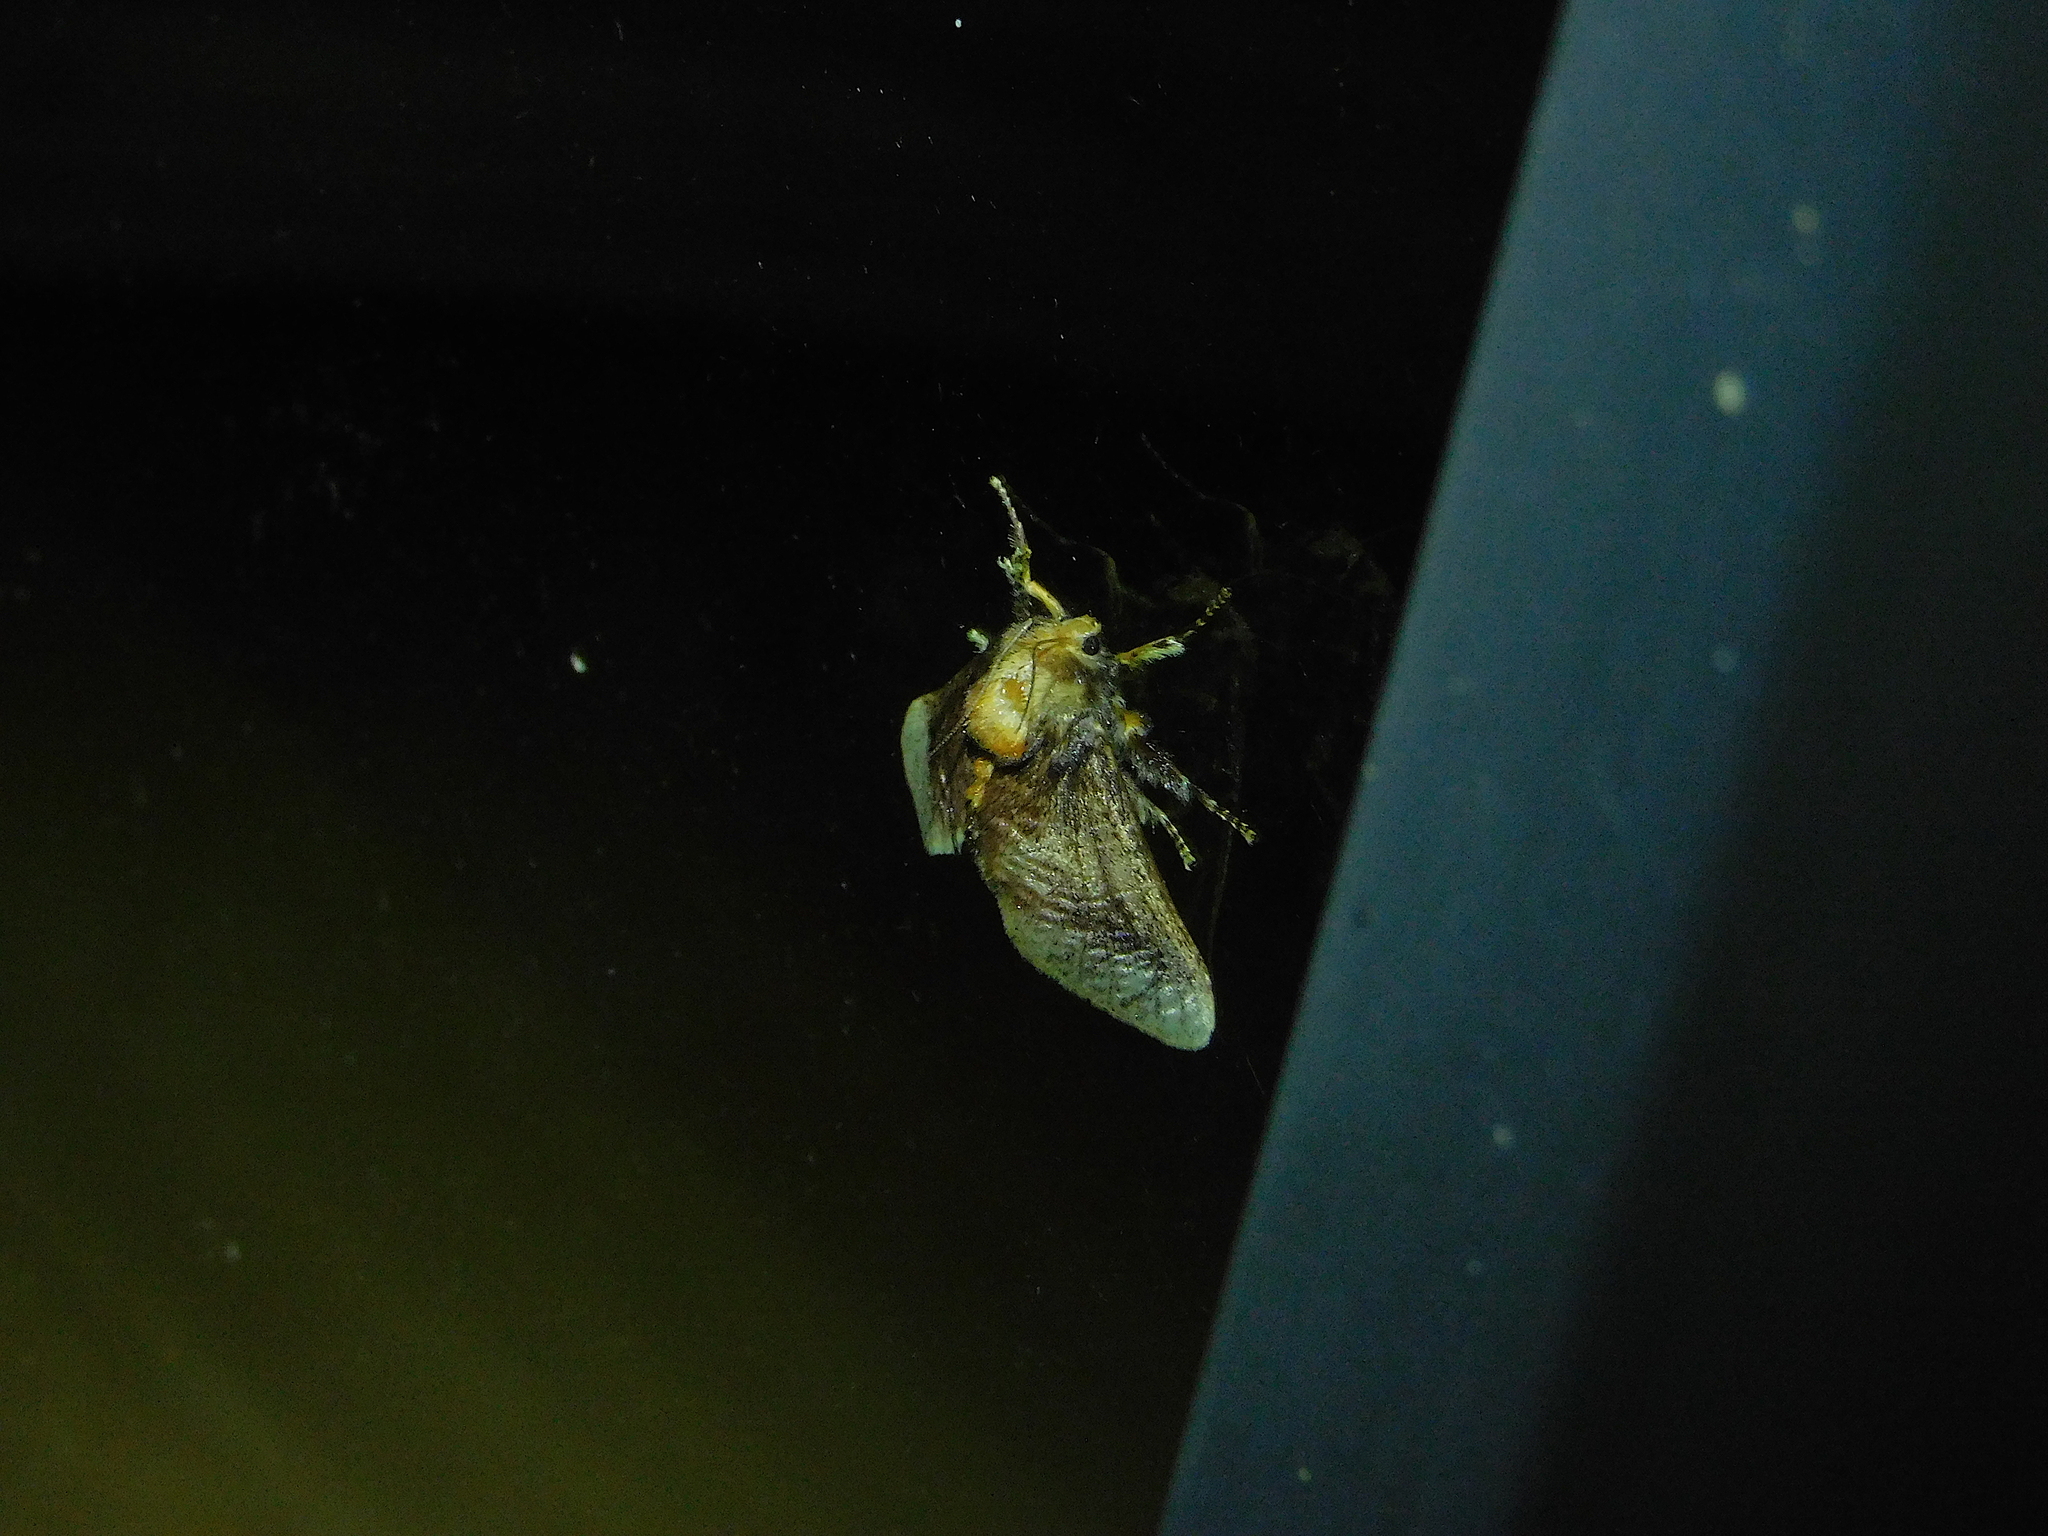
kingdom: Animalia
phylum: Arthropoda
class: Insecta
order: Lepidoptera
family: Limacodidae
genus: Doratifera
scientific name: Doratifera oxleyi
